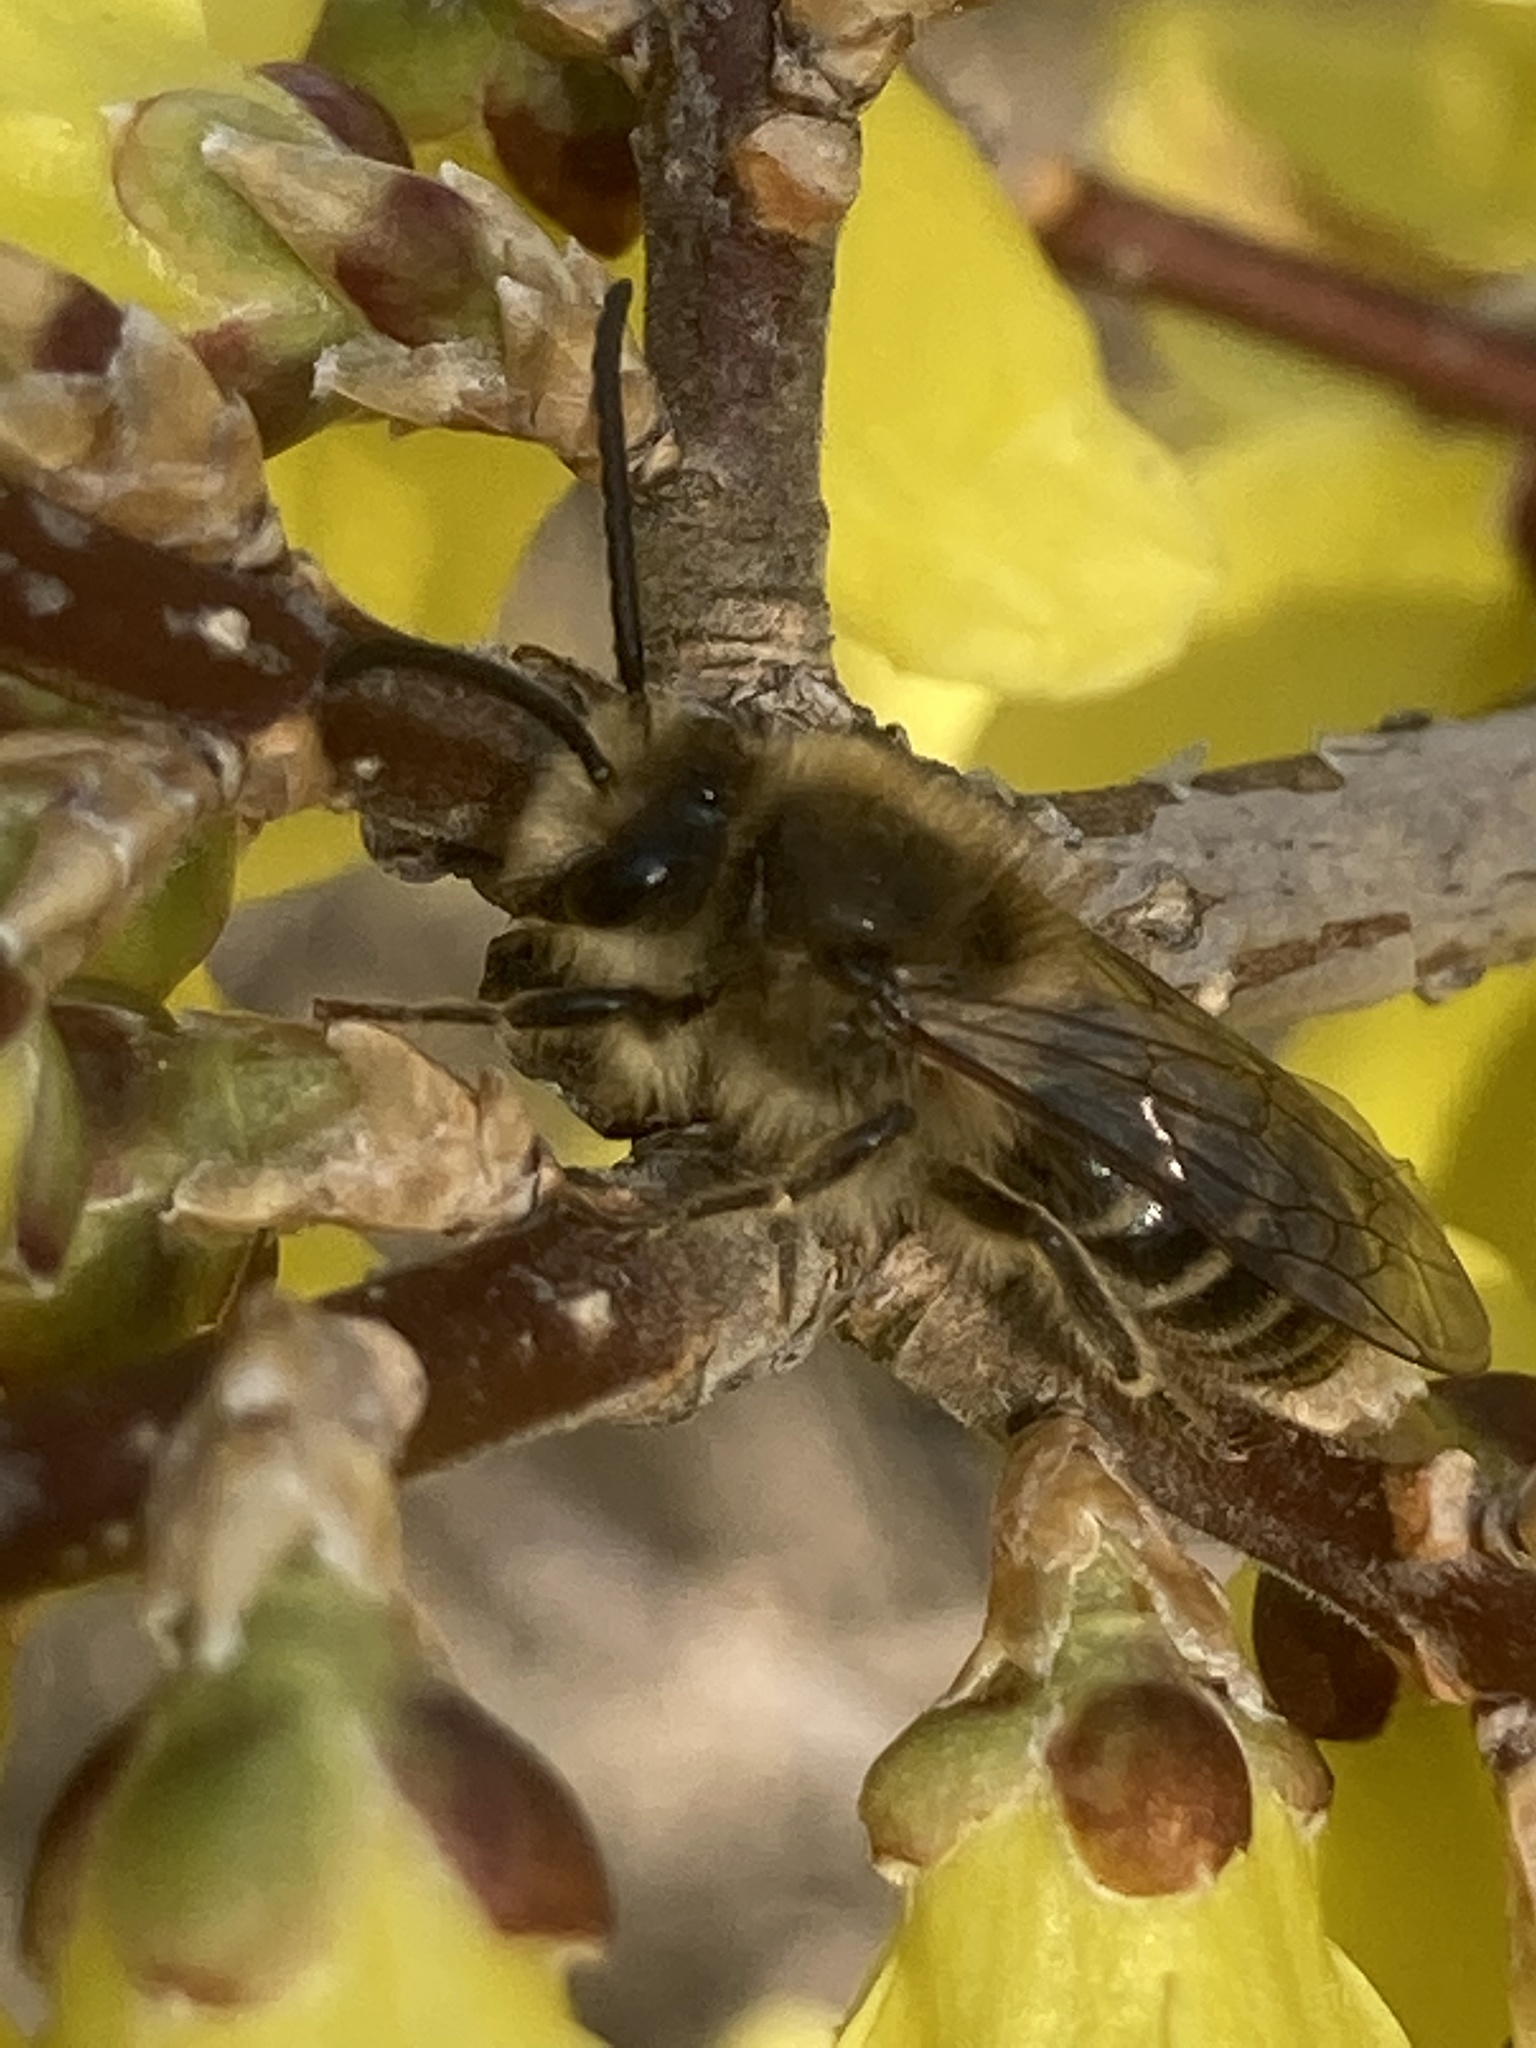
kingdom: Animalia
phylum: Arthropoda
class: Insecta
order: Hymenoptera
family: Colletidae
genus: Colletes
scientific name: Colletes inaequalis
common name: Unequal cellophane bee
